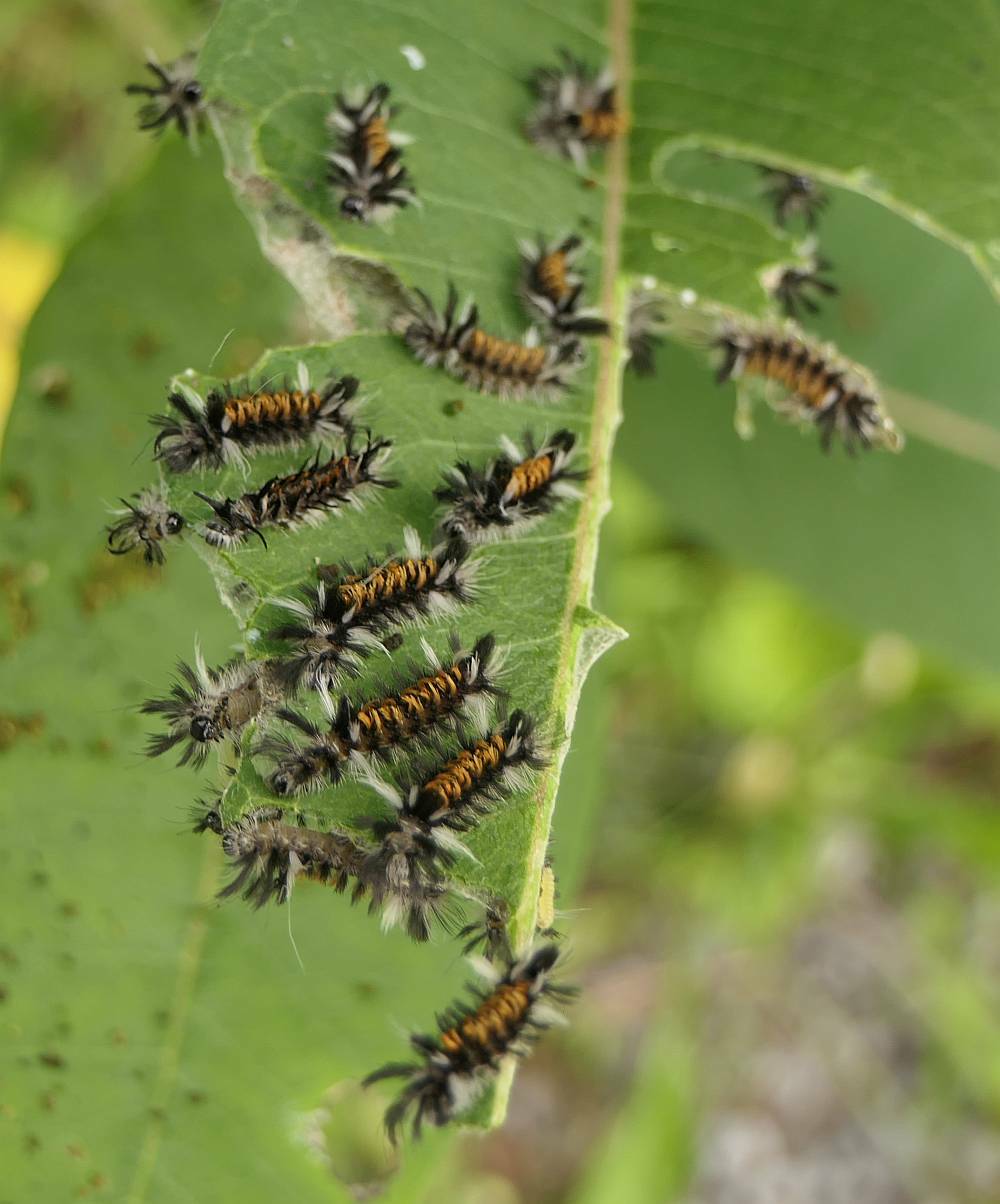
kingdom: Animalia
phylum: Arthropoda
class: Insecta
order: Lepidoptera
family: Erebidae
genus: Euchaetes
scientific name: Euchaetes egle
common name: Milkweed tussock moth
